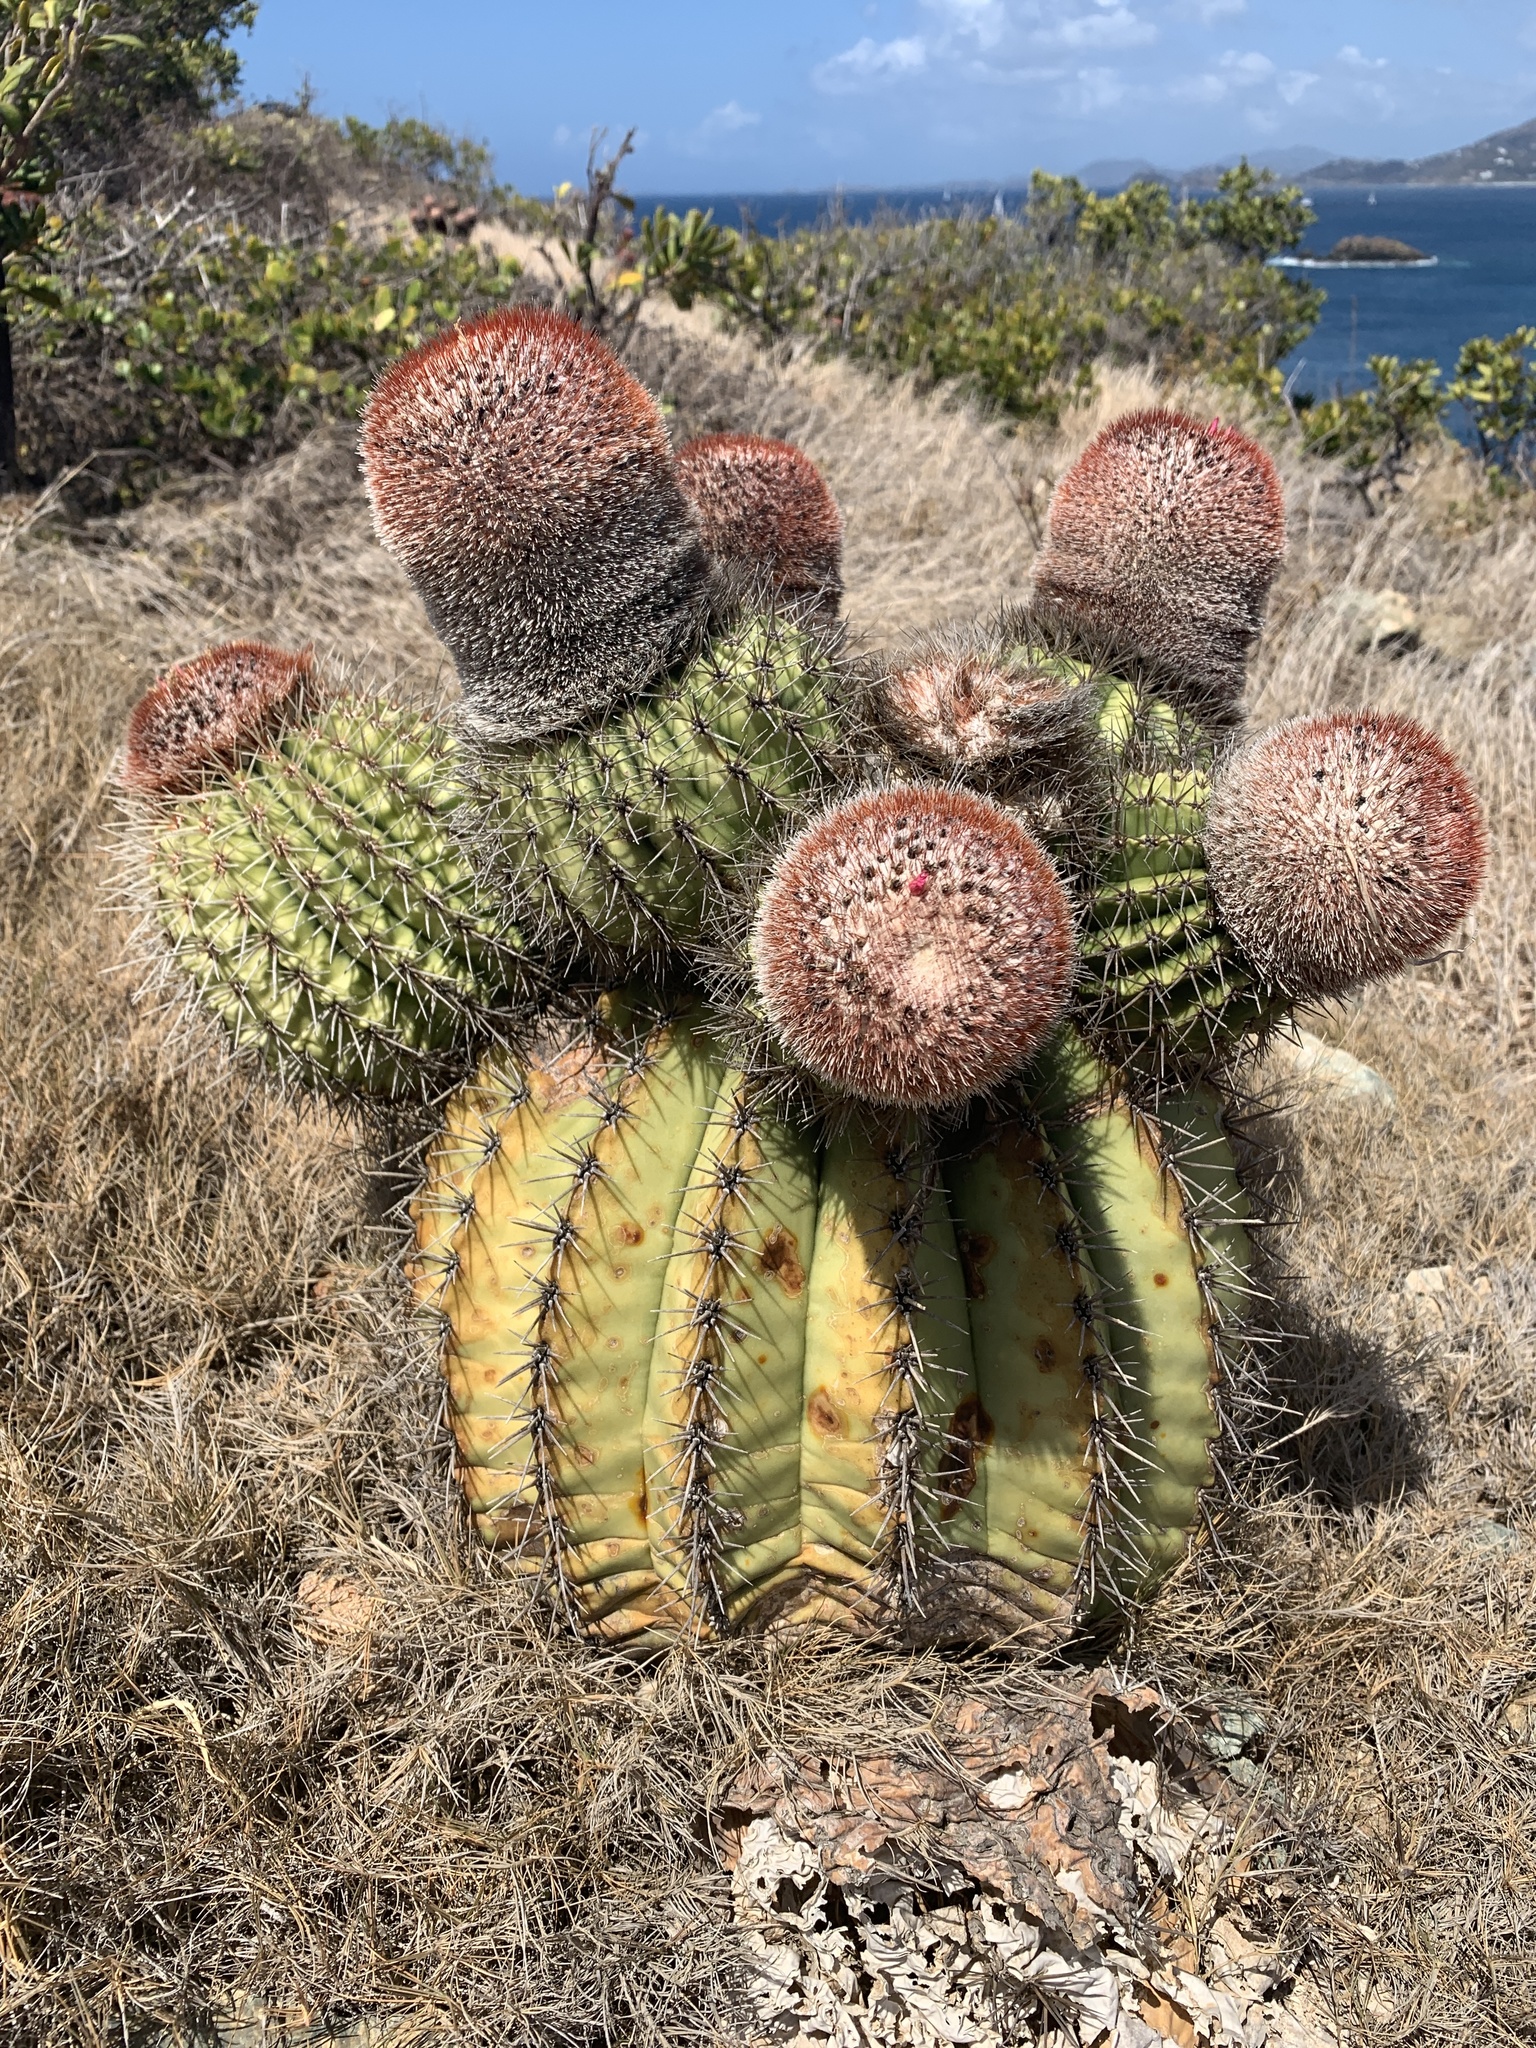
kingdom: Plantae
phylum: Tracheophyta
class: Magnoliopsida
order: Caryophyllales
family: Cactaceae
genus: Melocactus
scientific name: Melocactus intortus
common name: Barrel cactus
